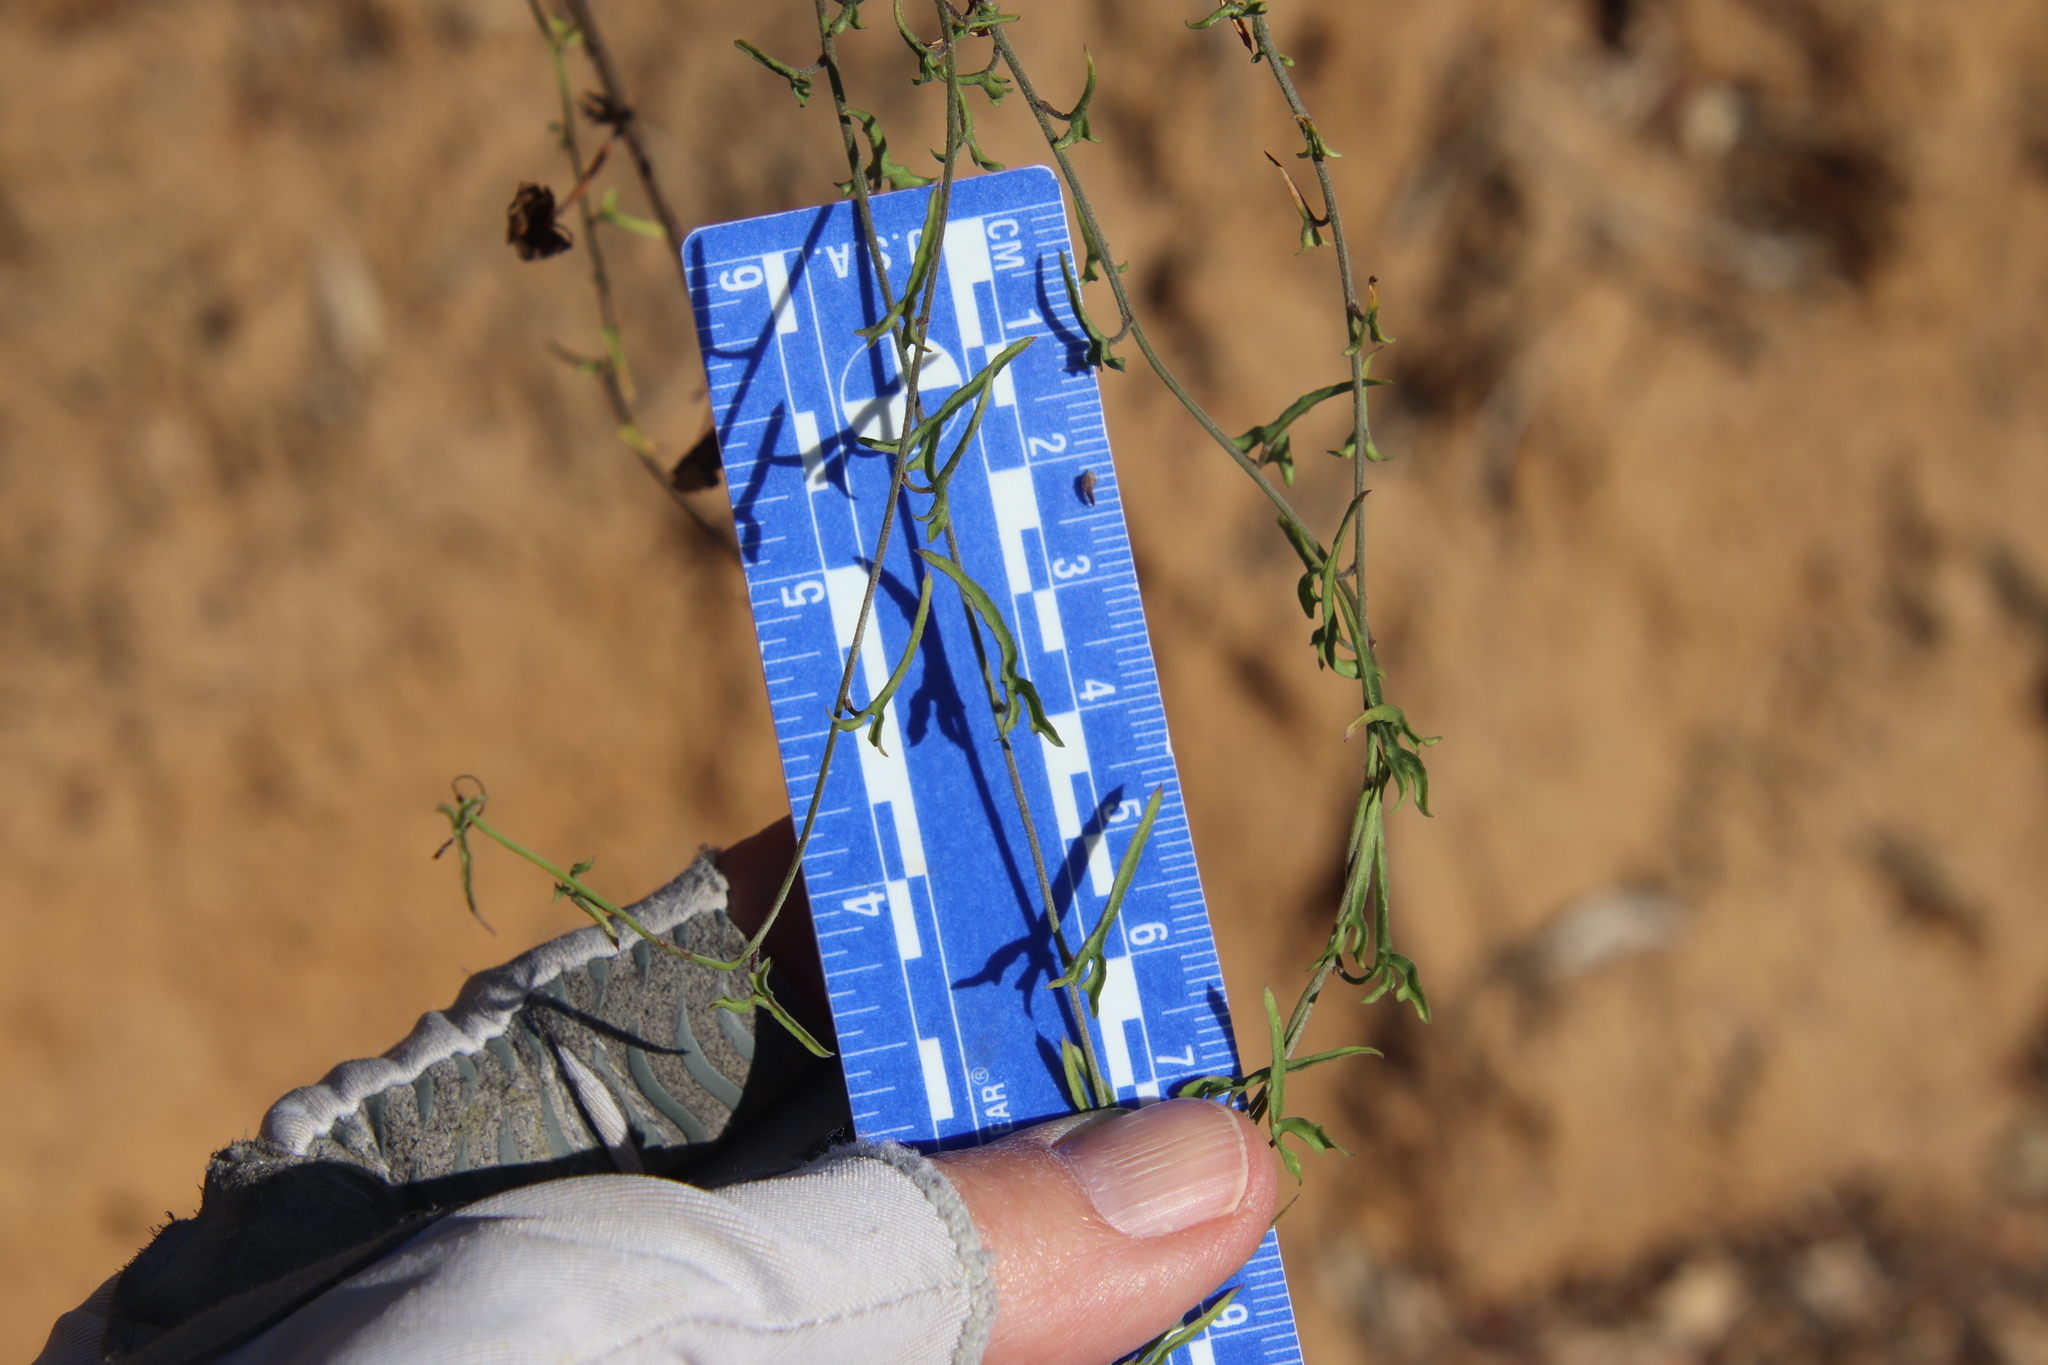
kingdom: Plantae
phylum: Tracheophyta
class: Magnoliopsida
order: Solanales
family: Convolvulaceae
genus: Calystegia
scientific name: Calystegia macrostegia
